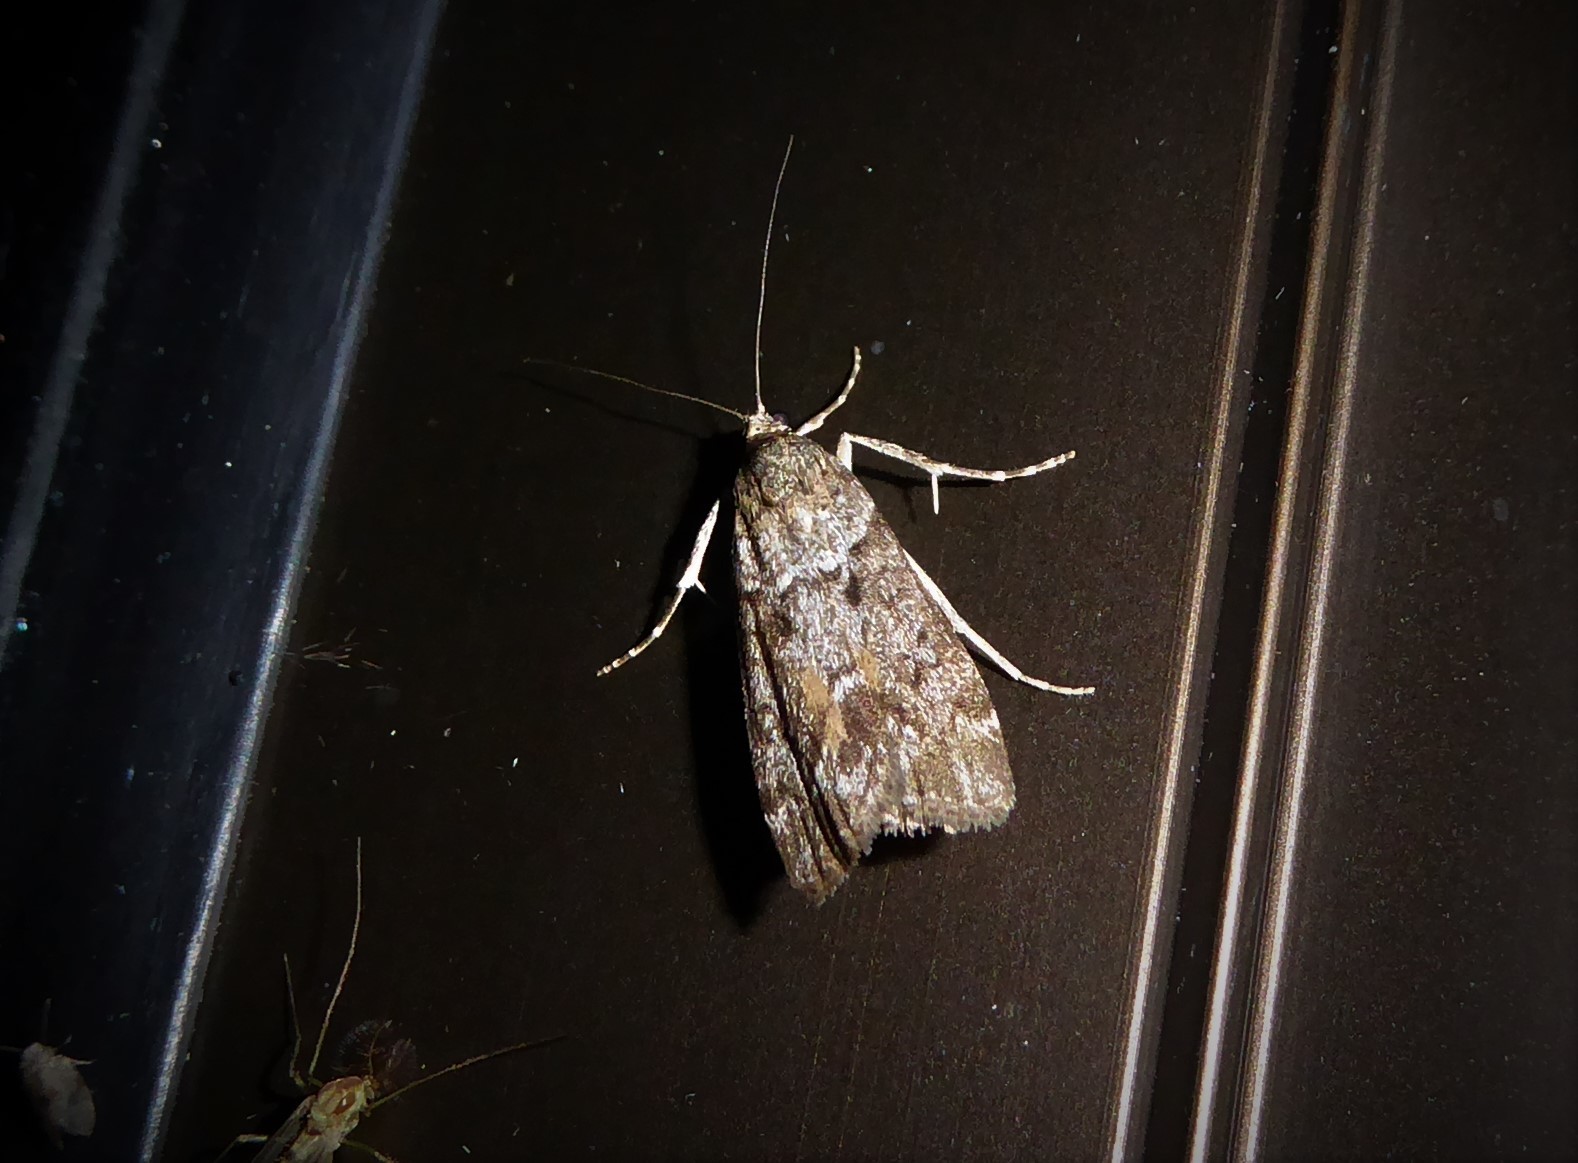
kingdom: Animalia
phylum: Arthropoda
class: Insecta
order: Lepidoptera
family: Crambidae
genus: Eudonia
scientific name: Eudonia submarginalis
